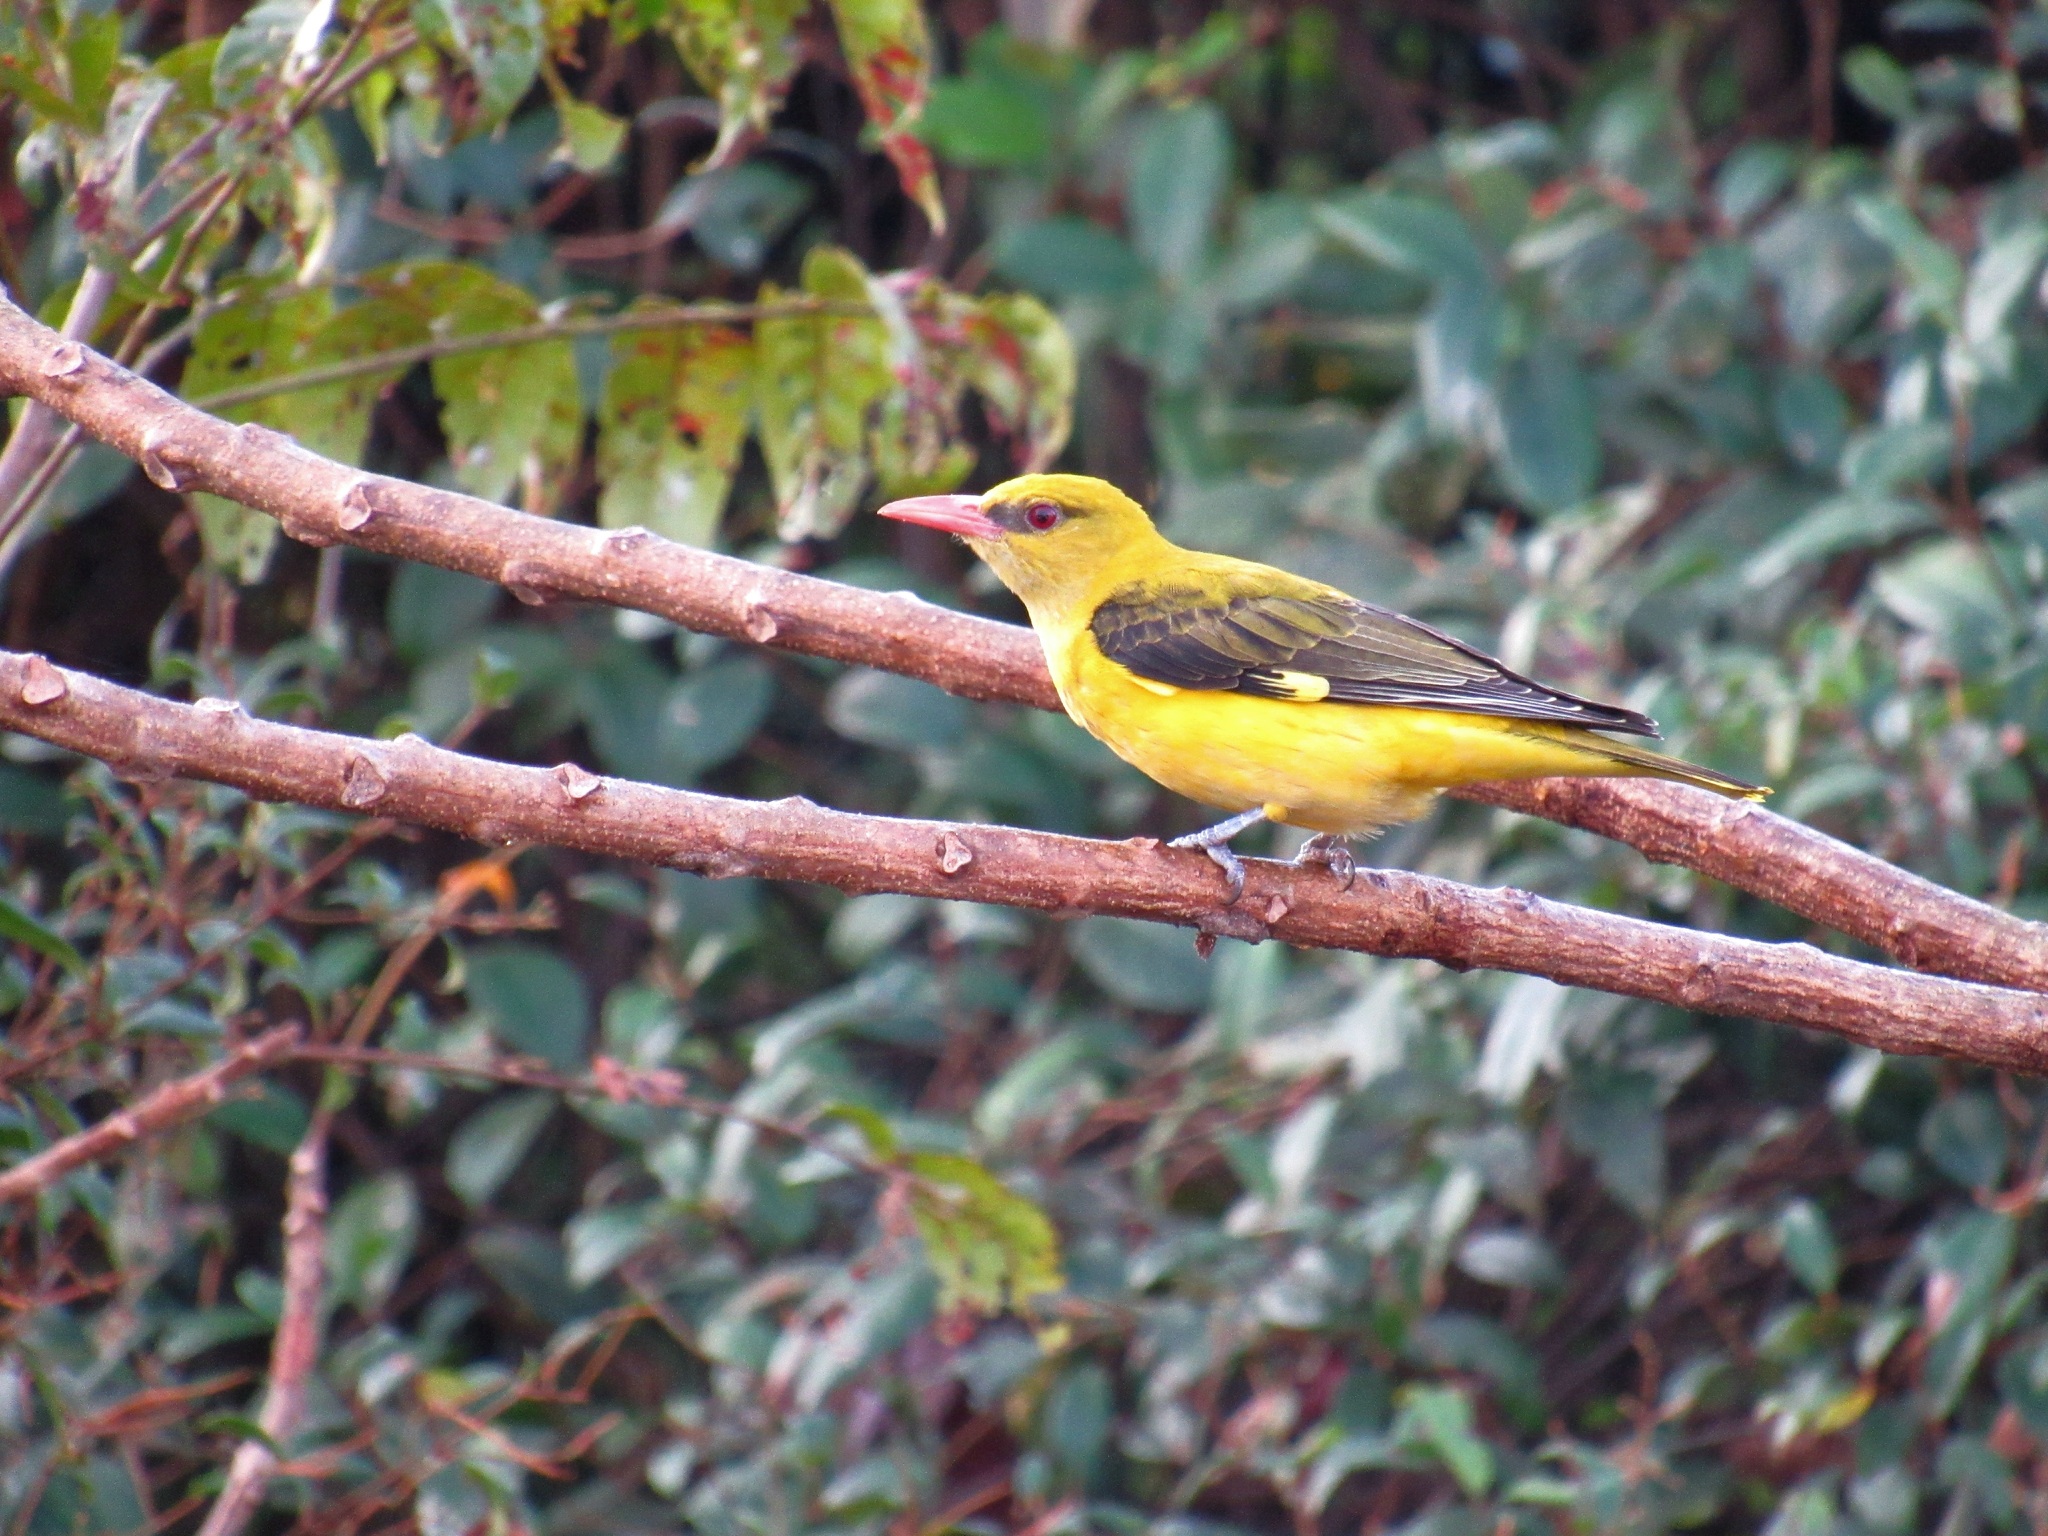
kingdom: Animalia
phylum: Chordata
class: Aves
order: Passeriformes
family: Oriolidae
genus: Oriolus
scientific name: Oriolus kundoo
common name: Indian golden oriole
